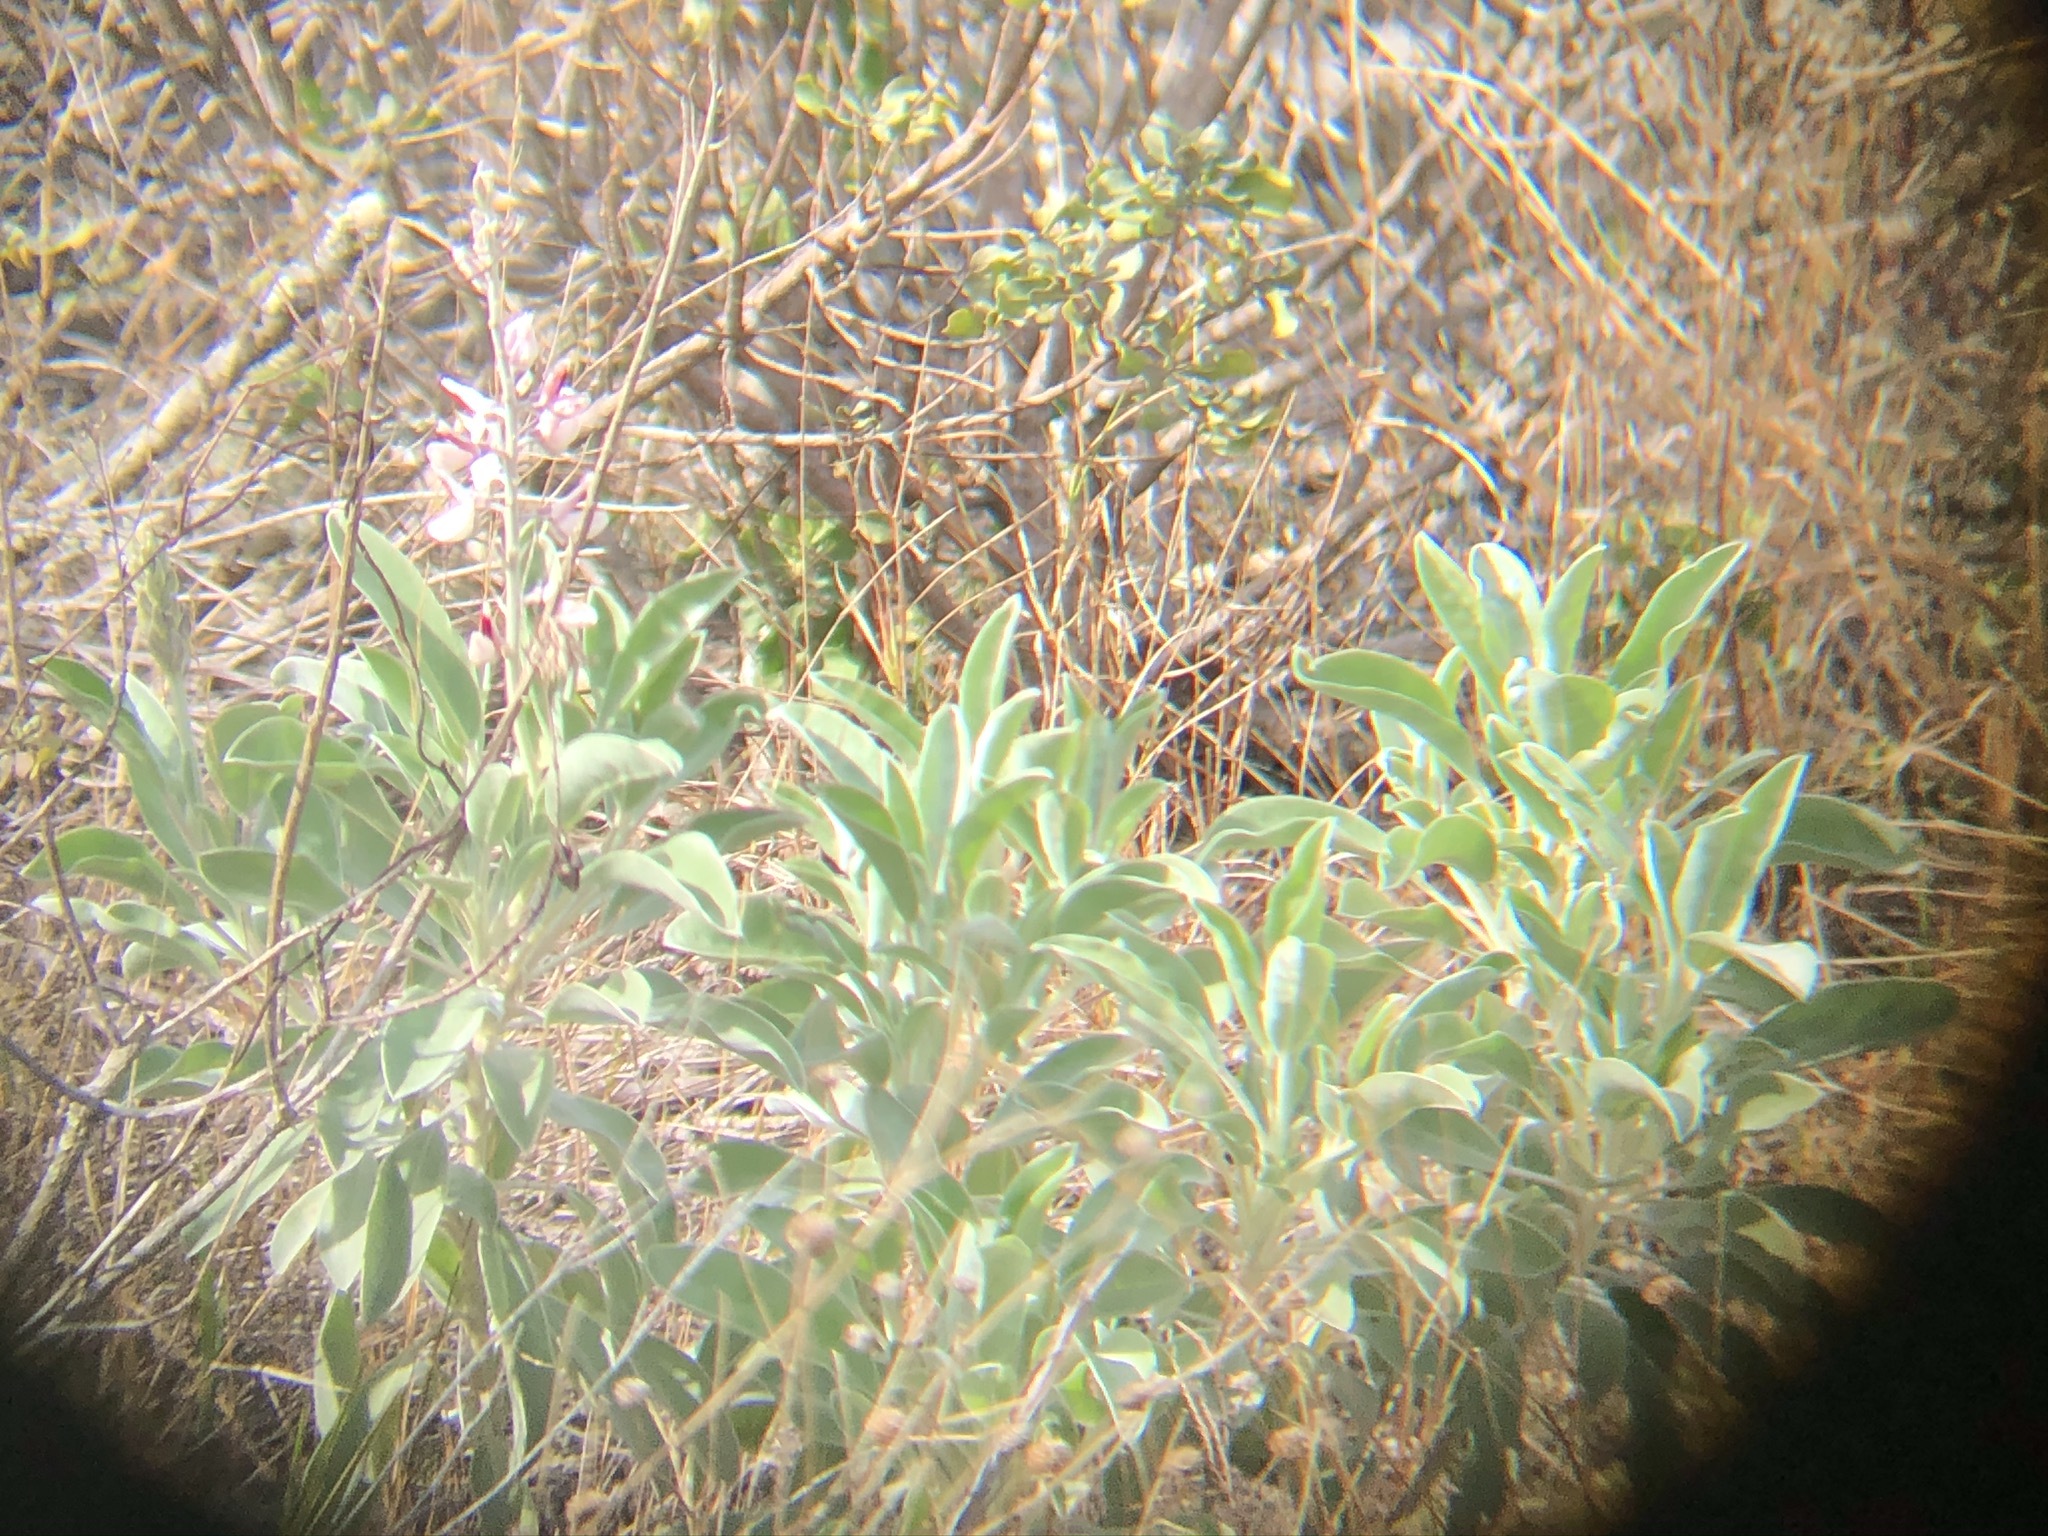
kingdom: Plantae
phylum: Tracheophyta
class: Magnoliopsida
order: Fabales
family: Fabaceae
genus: Lupinus
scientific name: Lupinus westianus
